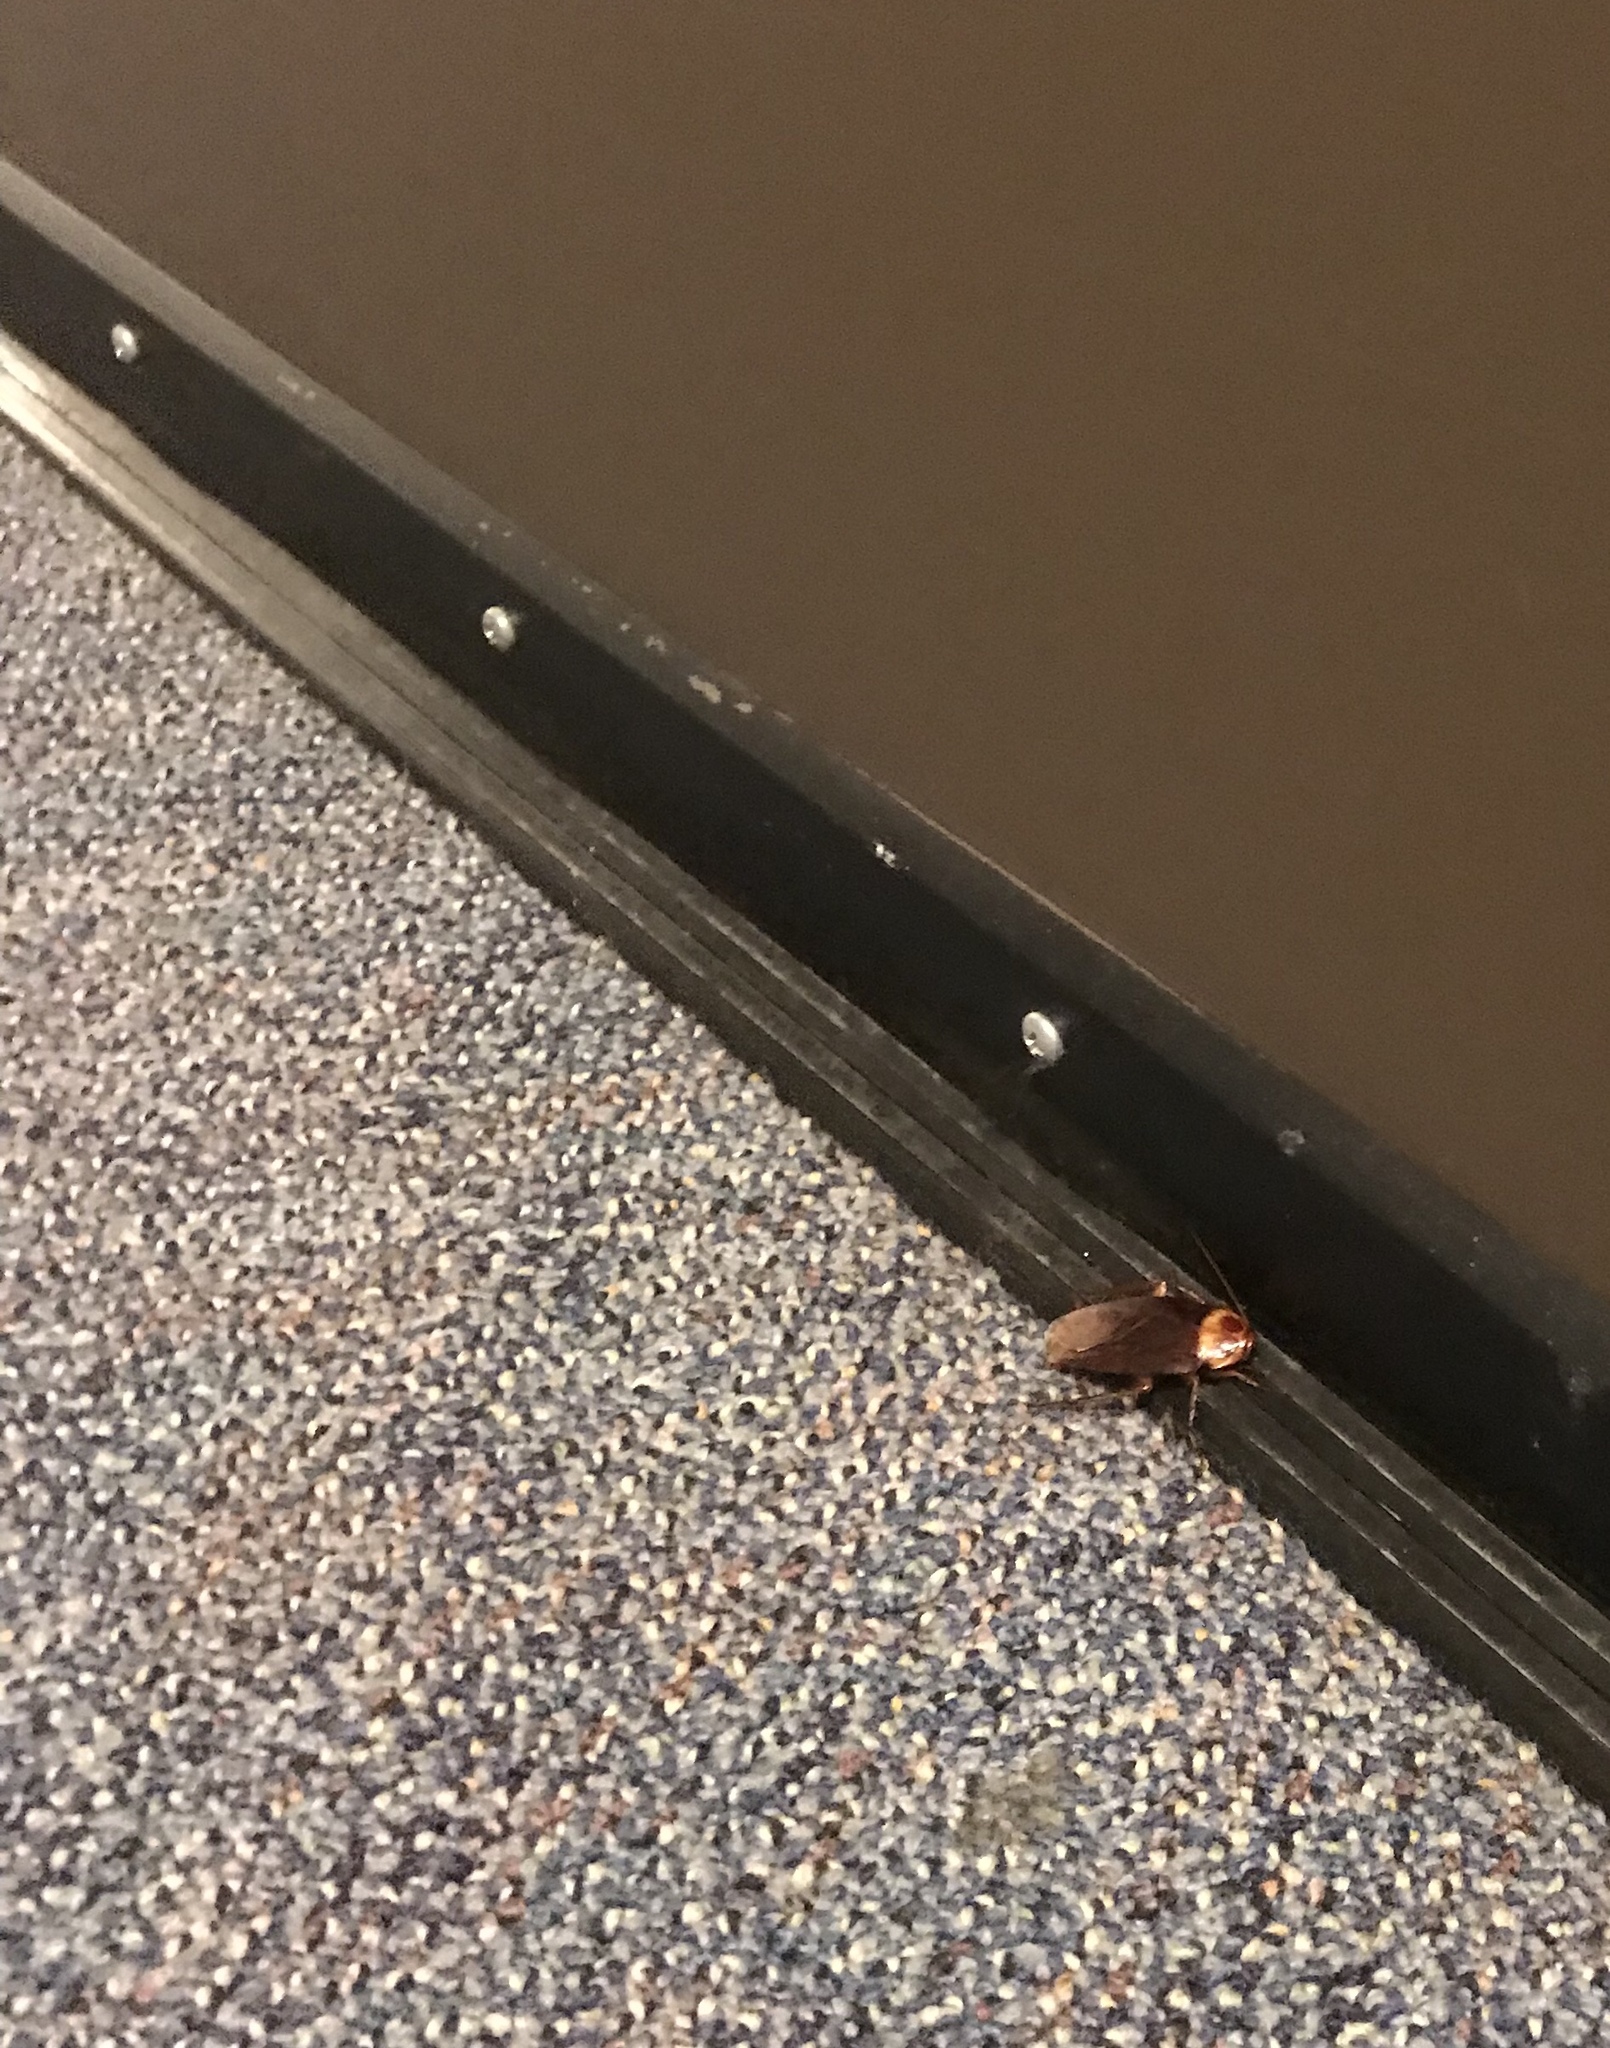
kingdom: Animalia
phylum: Arthropoda
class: Insecta
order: Blattodea
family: Blattidae
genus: Periplaneta
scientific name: Periplaneta americana
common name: American cockroach
